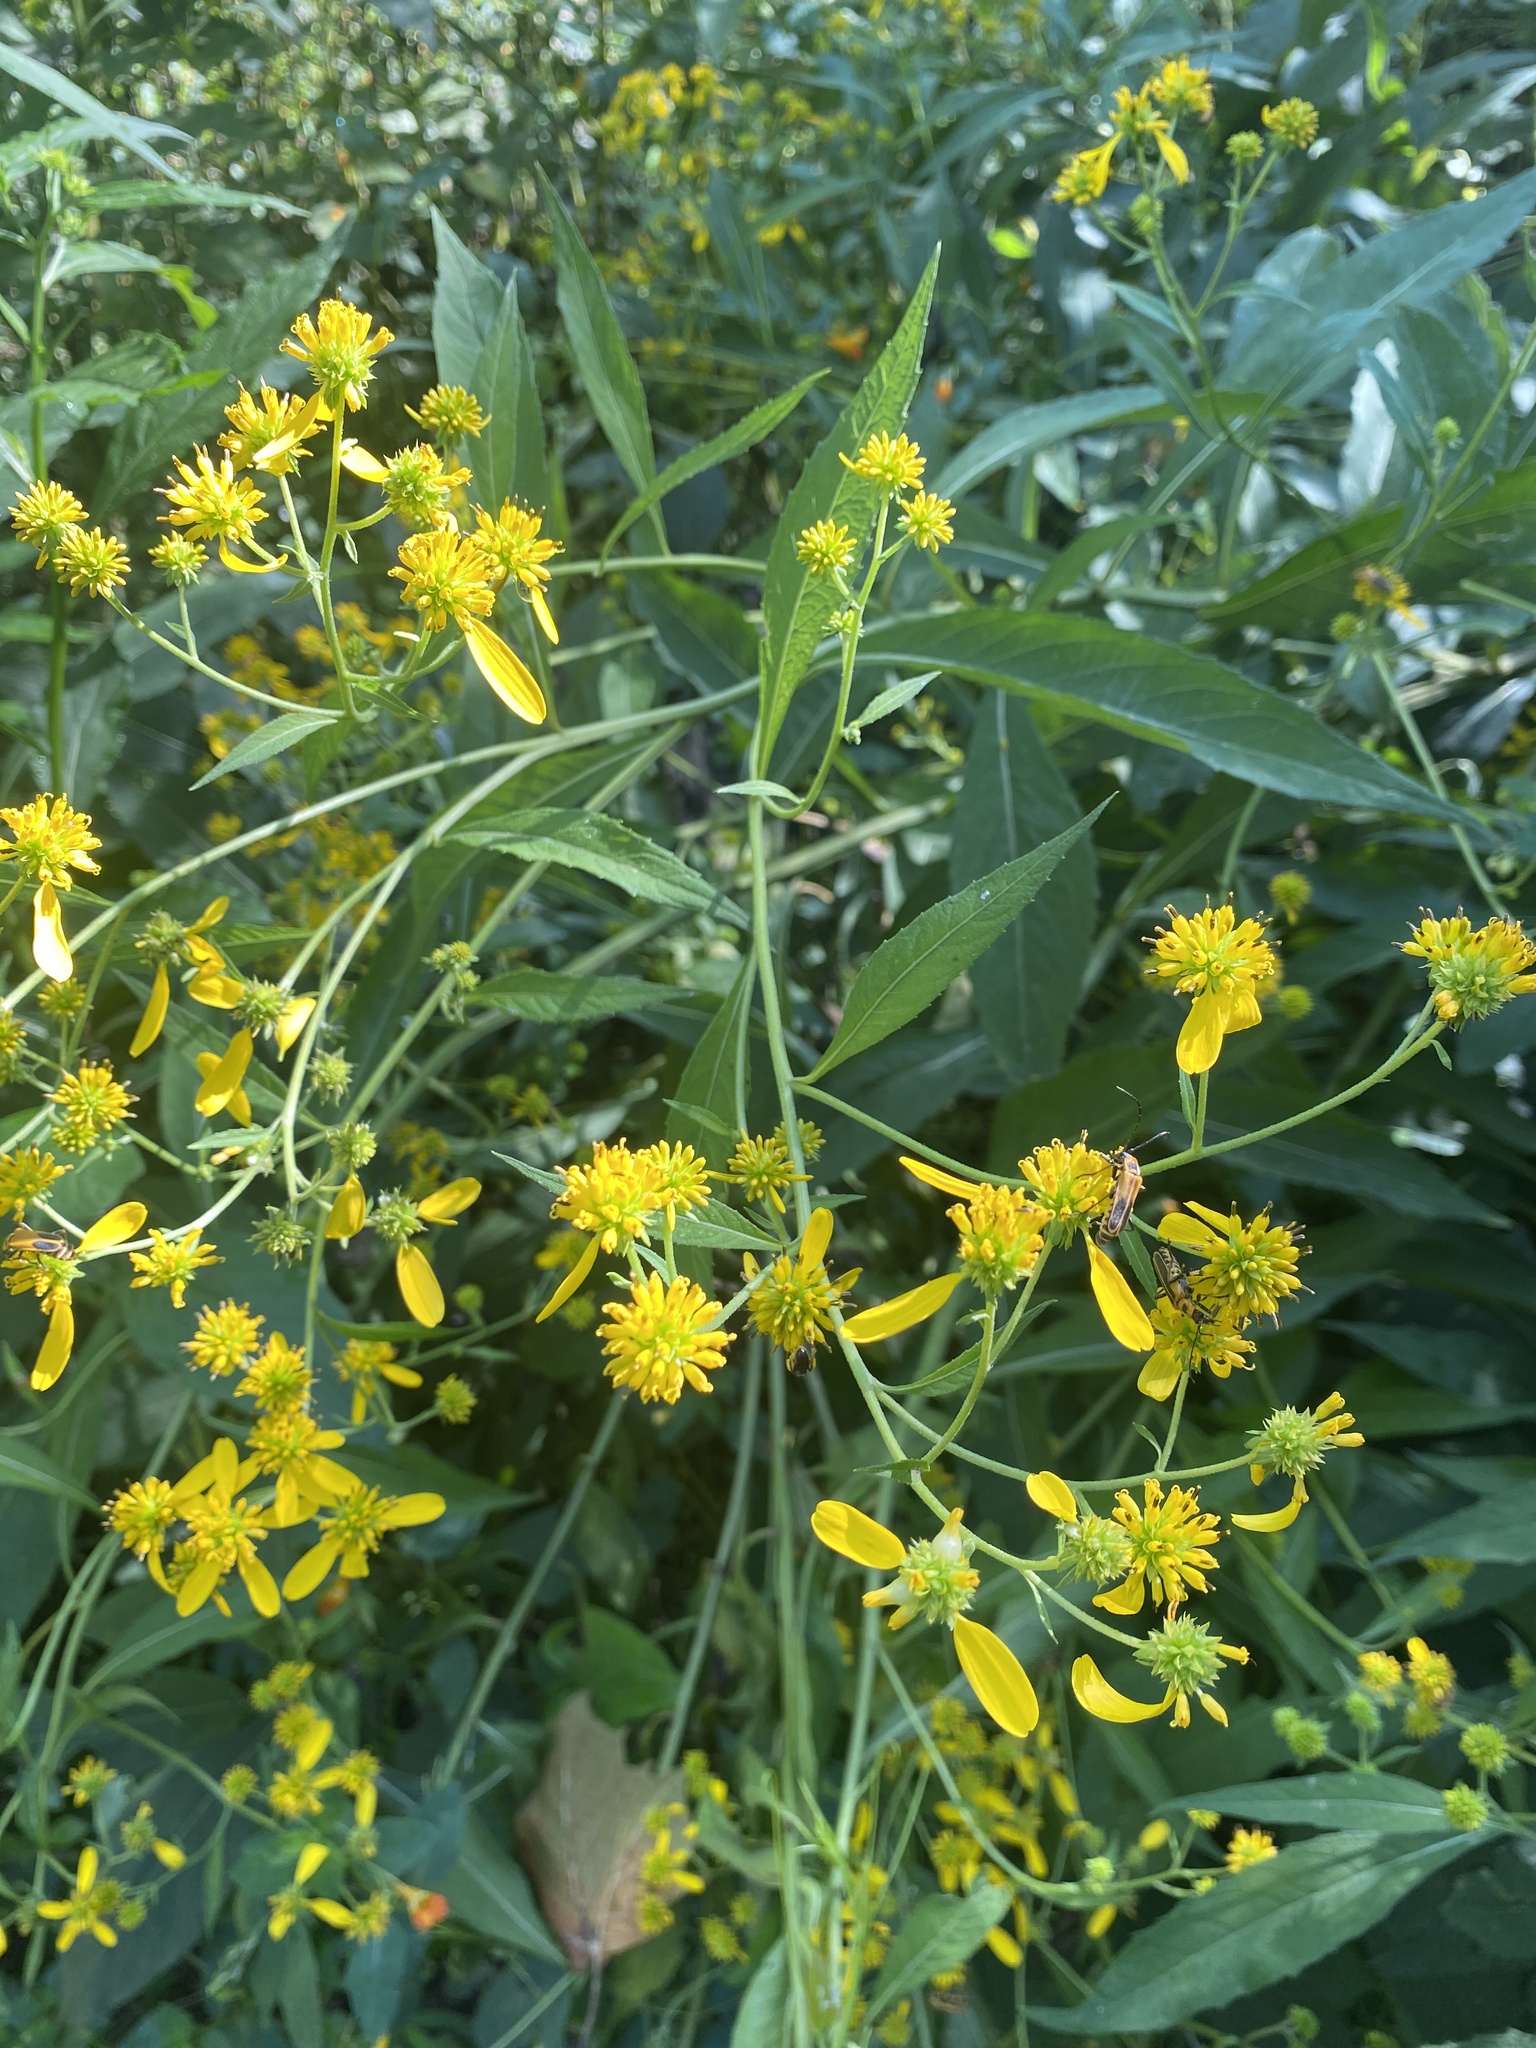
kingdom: Plantae
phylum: Tracheophyta
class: Magnoliopsida
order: Asterales
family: Asteraceae
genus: Verbesina
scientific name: Verbesina alternifolia
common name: Wingstem
